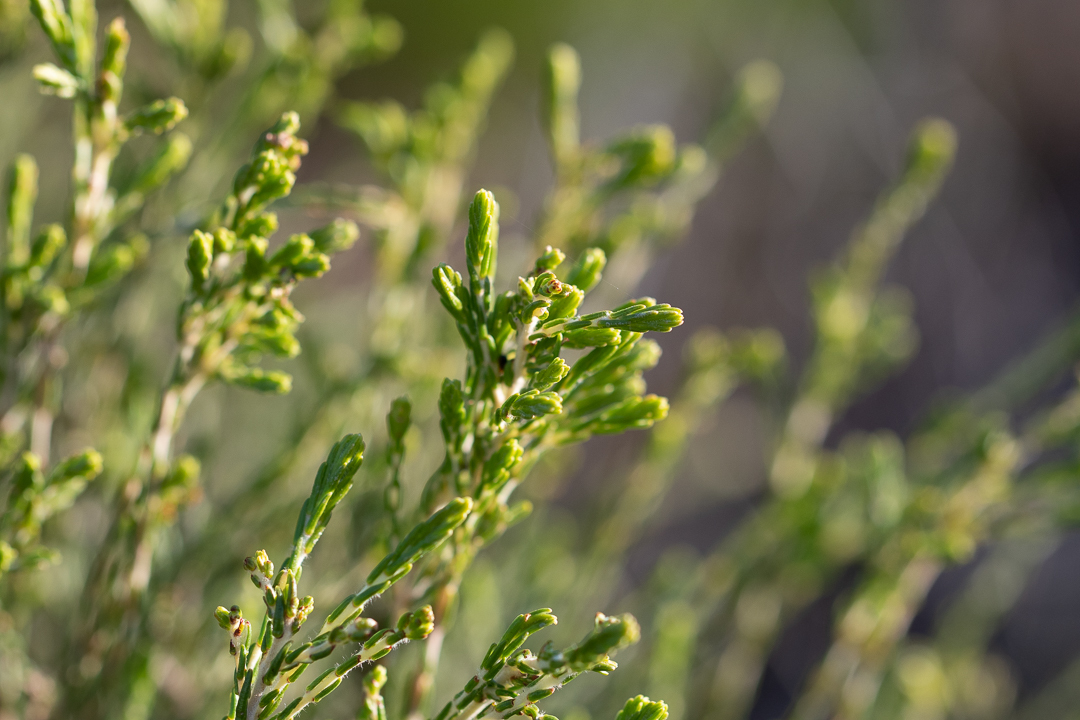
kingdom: Plantae
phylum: Tracheophyta
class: Magnoliopsida
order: Malvales
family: Thymelaeaceae
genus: Passerina
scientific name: Passerina corymbosa
